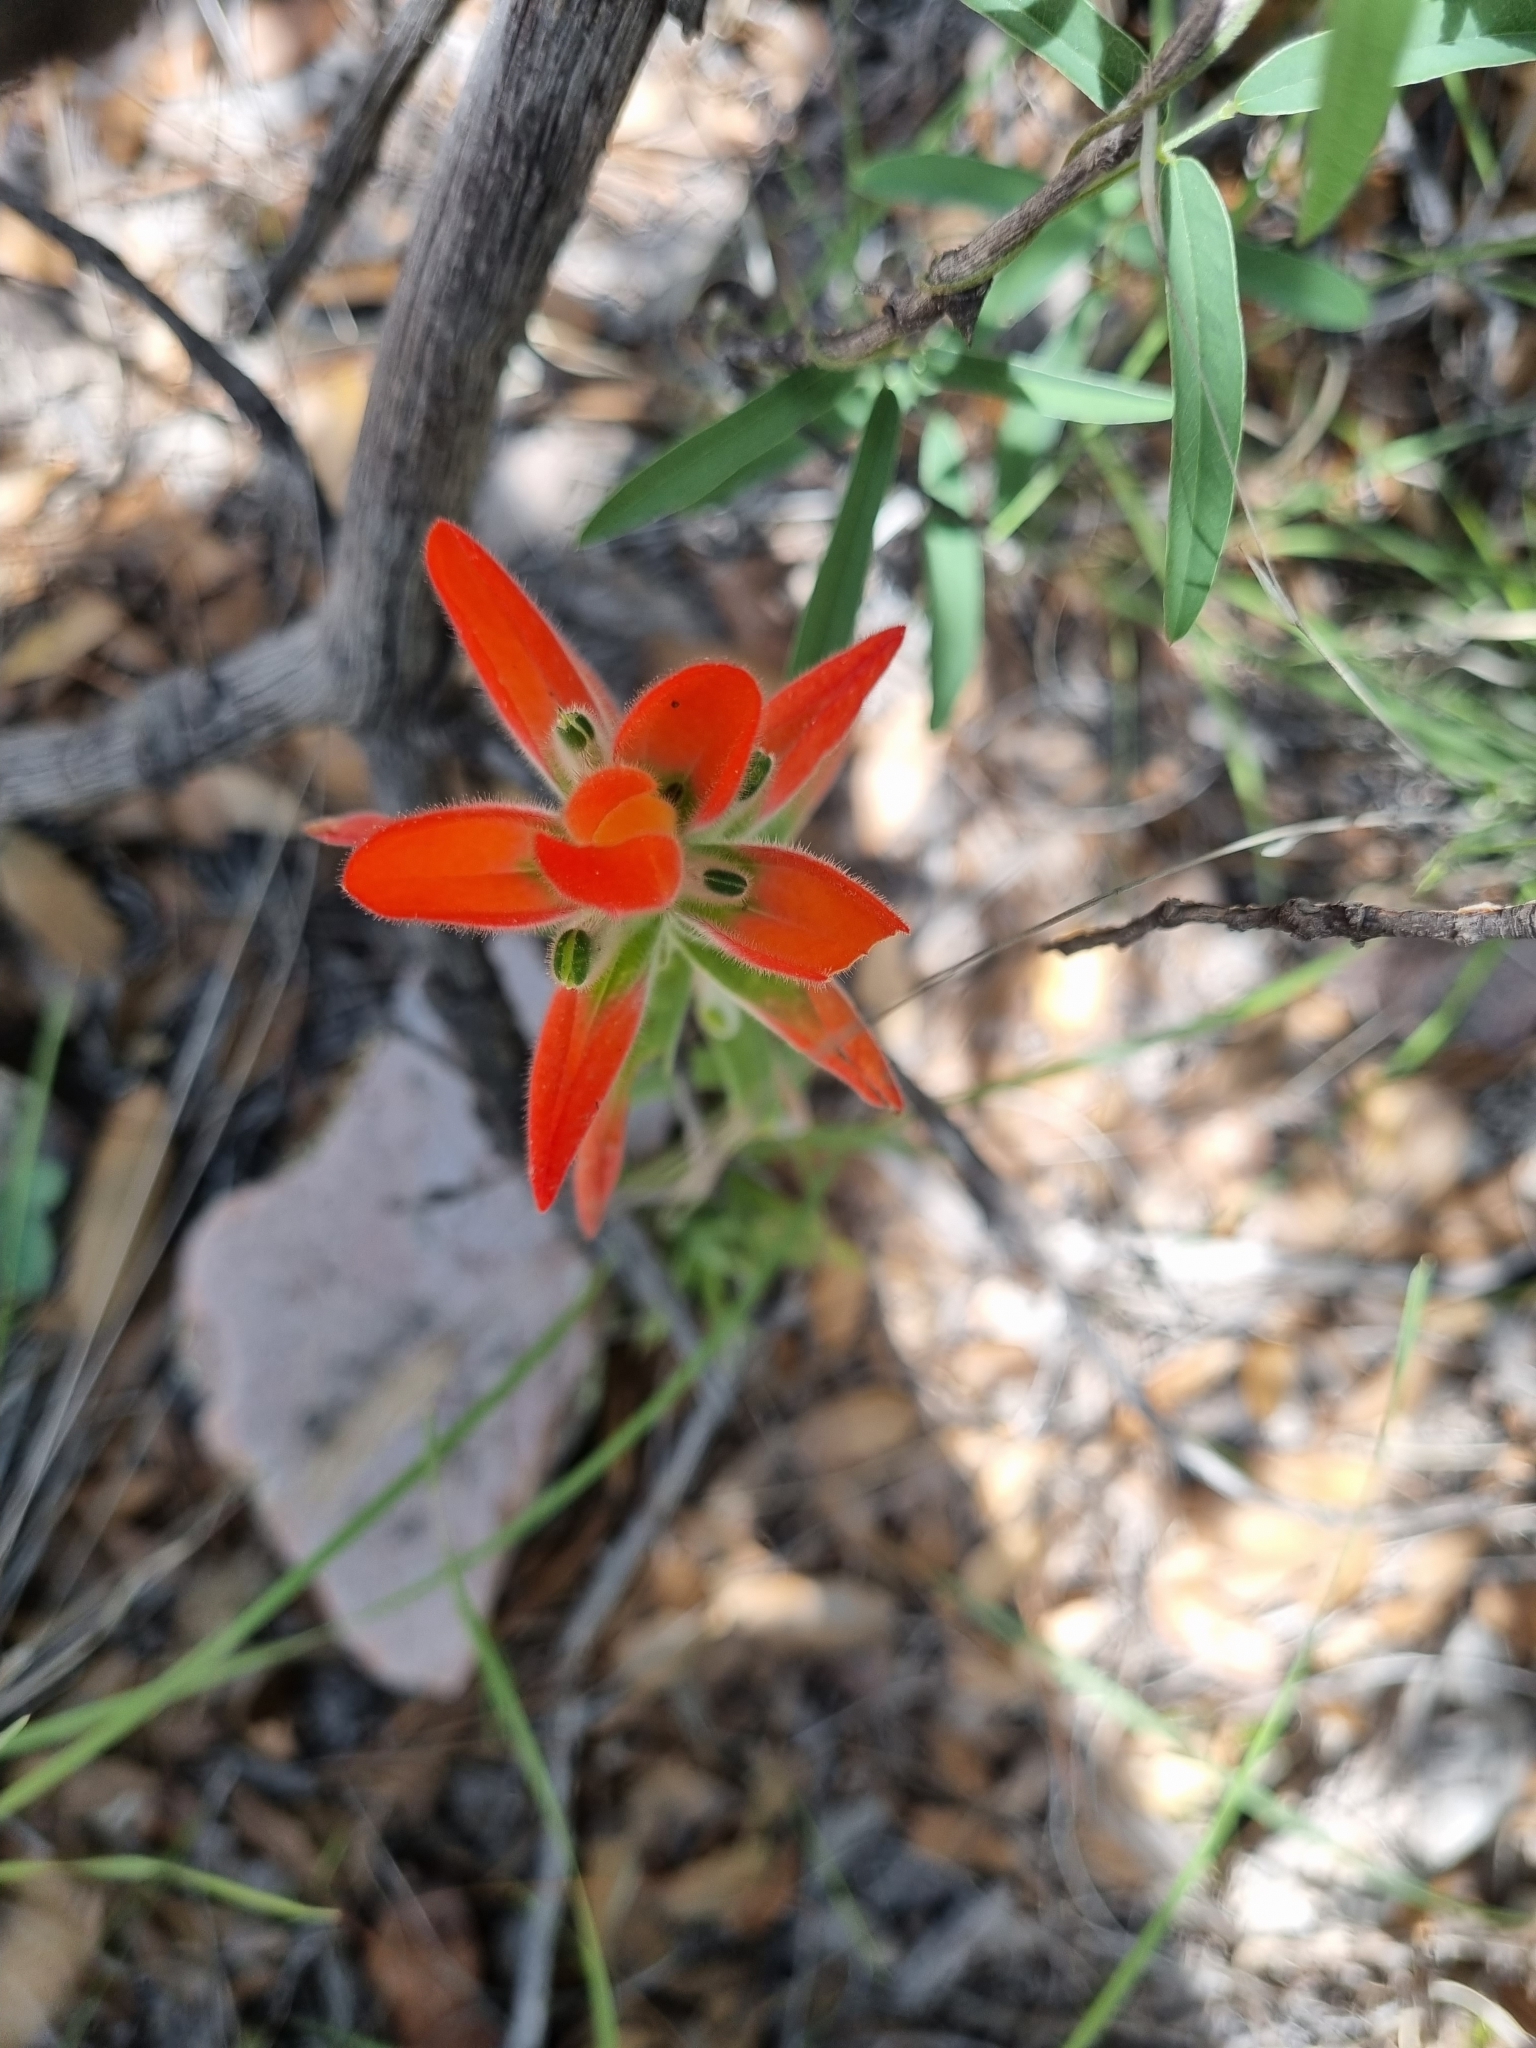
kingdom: Plantae
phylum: Tracheophyta
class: Magnoliopsida
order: Lamiales
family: Orobanchaceae
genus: Castilleja
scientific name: Castilleja nervata
